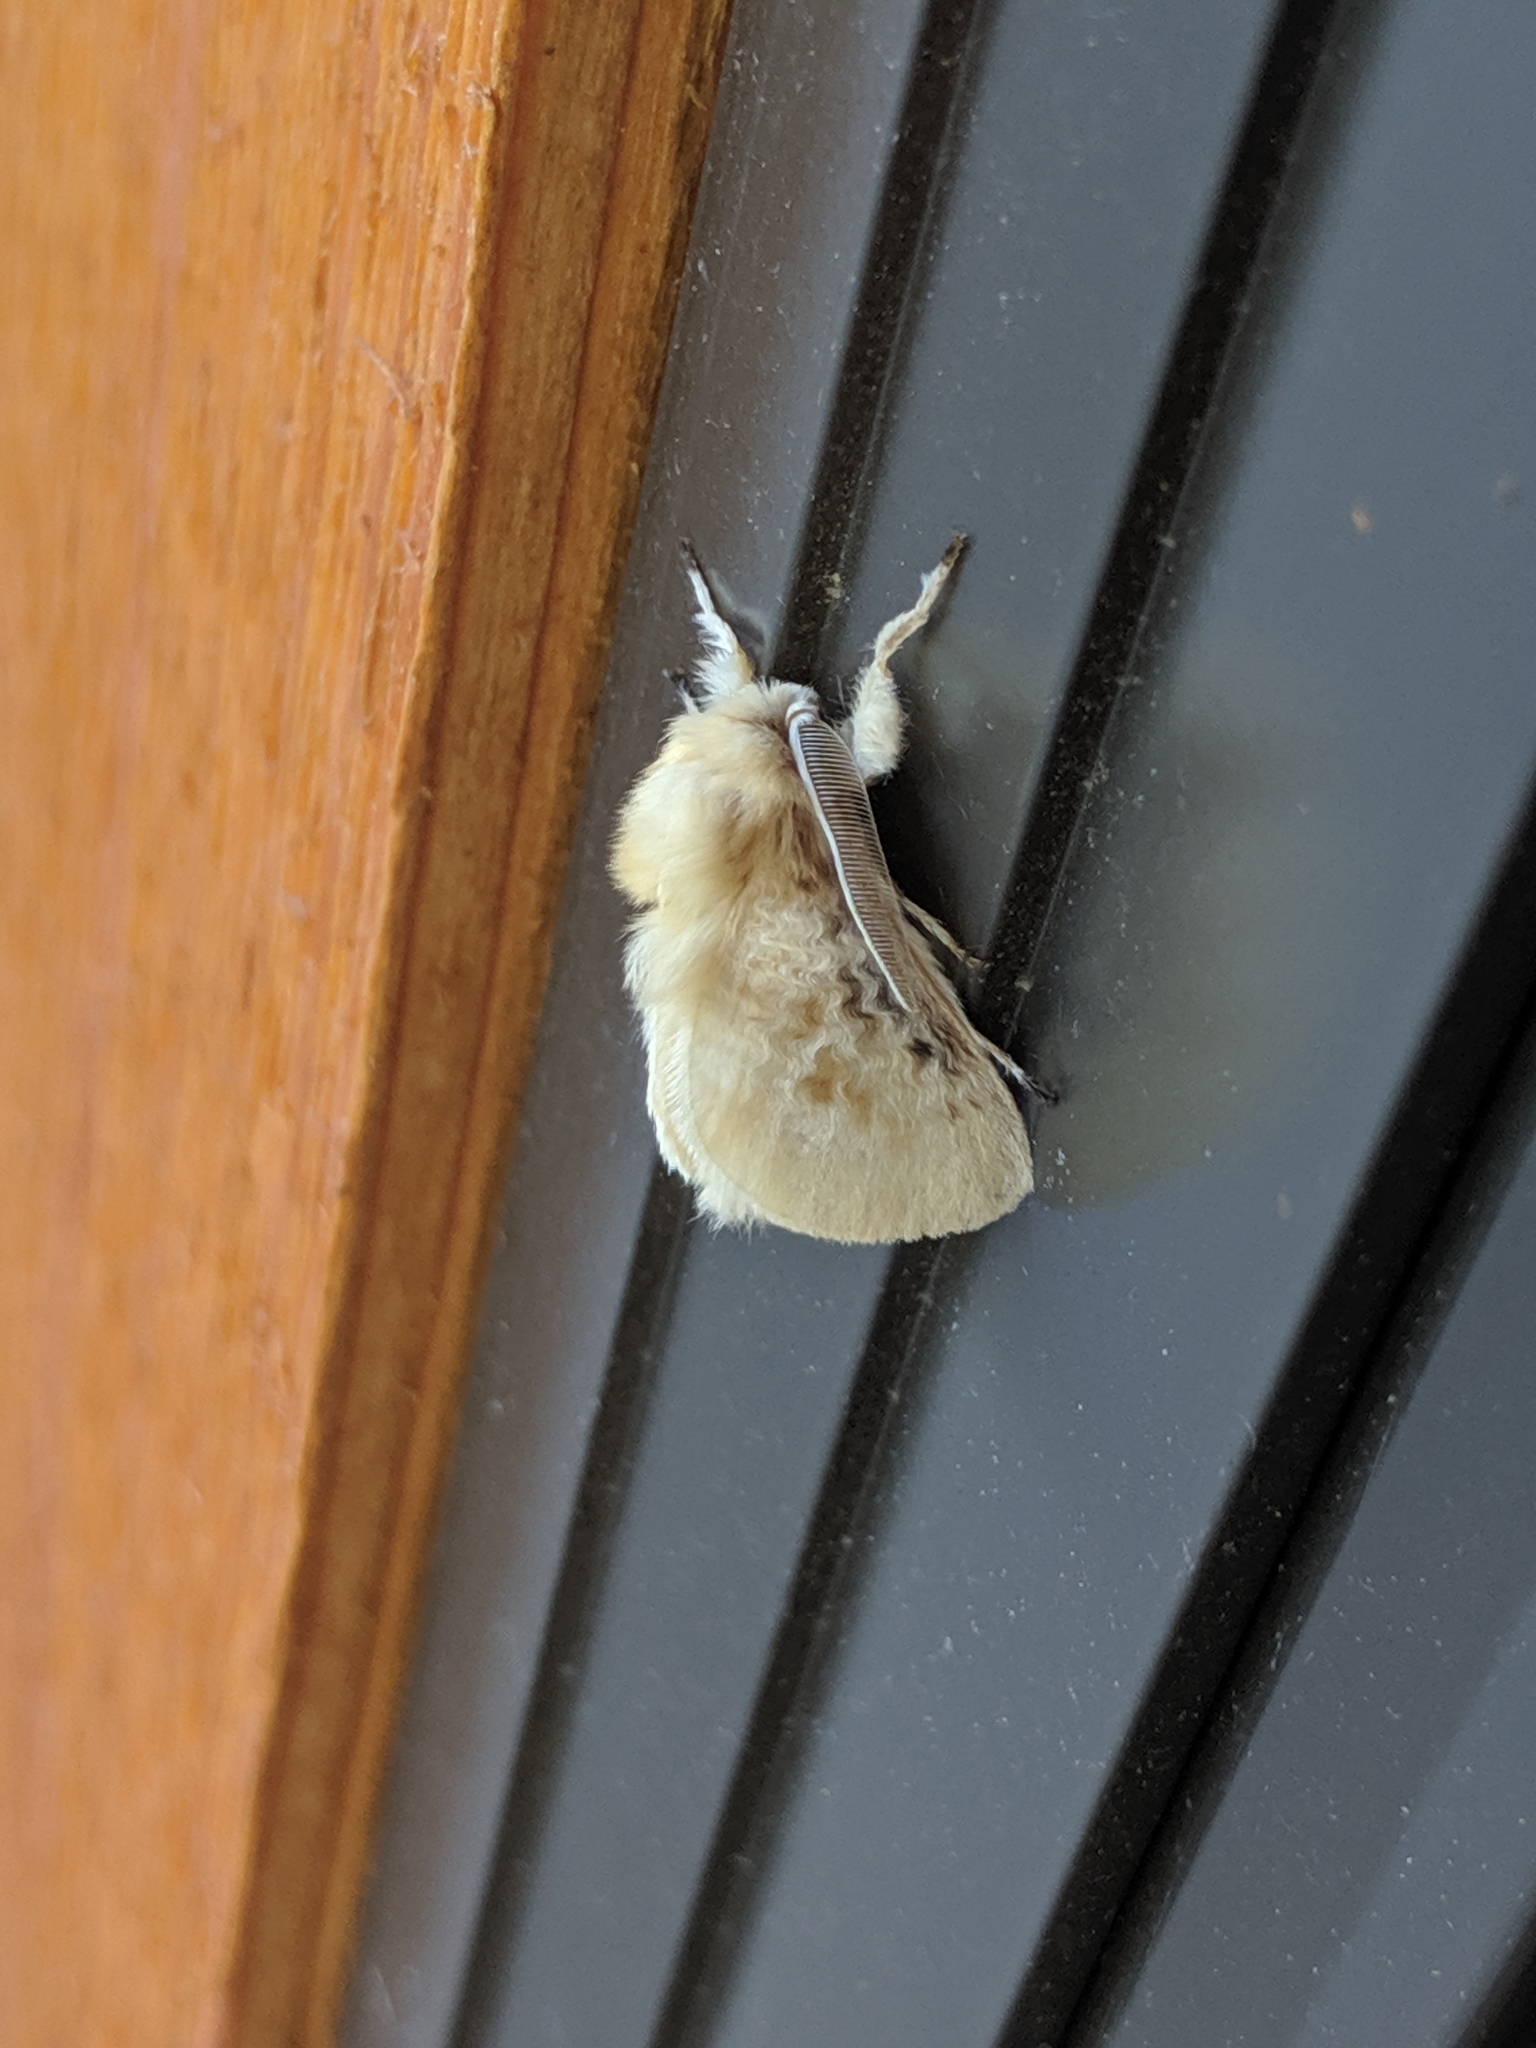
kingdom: Animalia
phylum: Arthropoda
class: Insecta
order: Lepidoptera
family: Megalopygidae
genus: Megalopyge
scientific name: Megalopyge crispata
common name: Black-waved flannel moth
